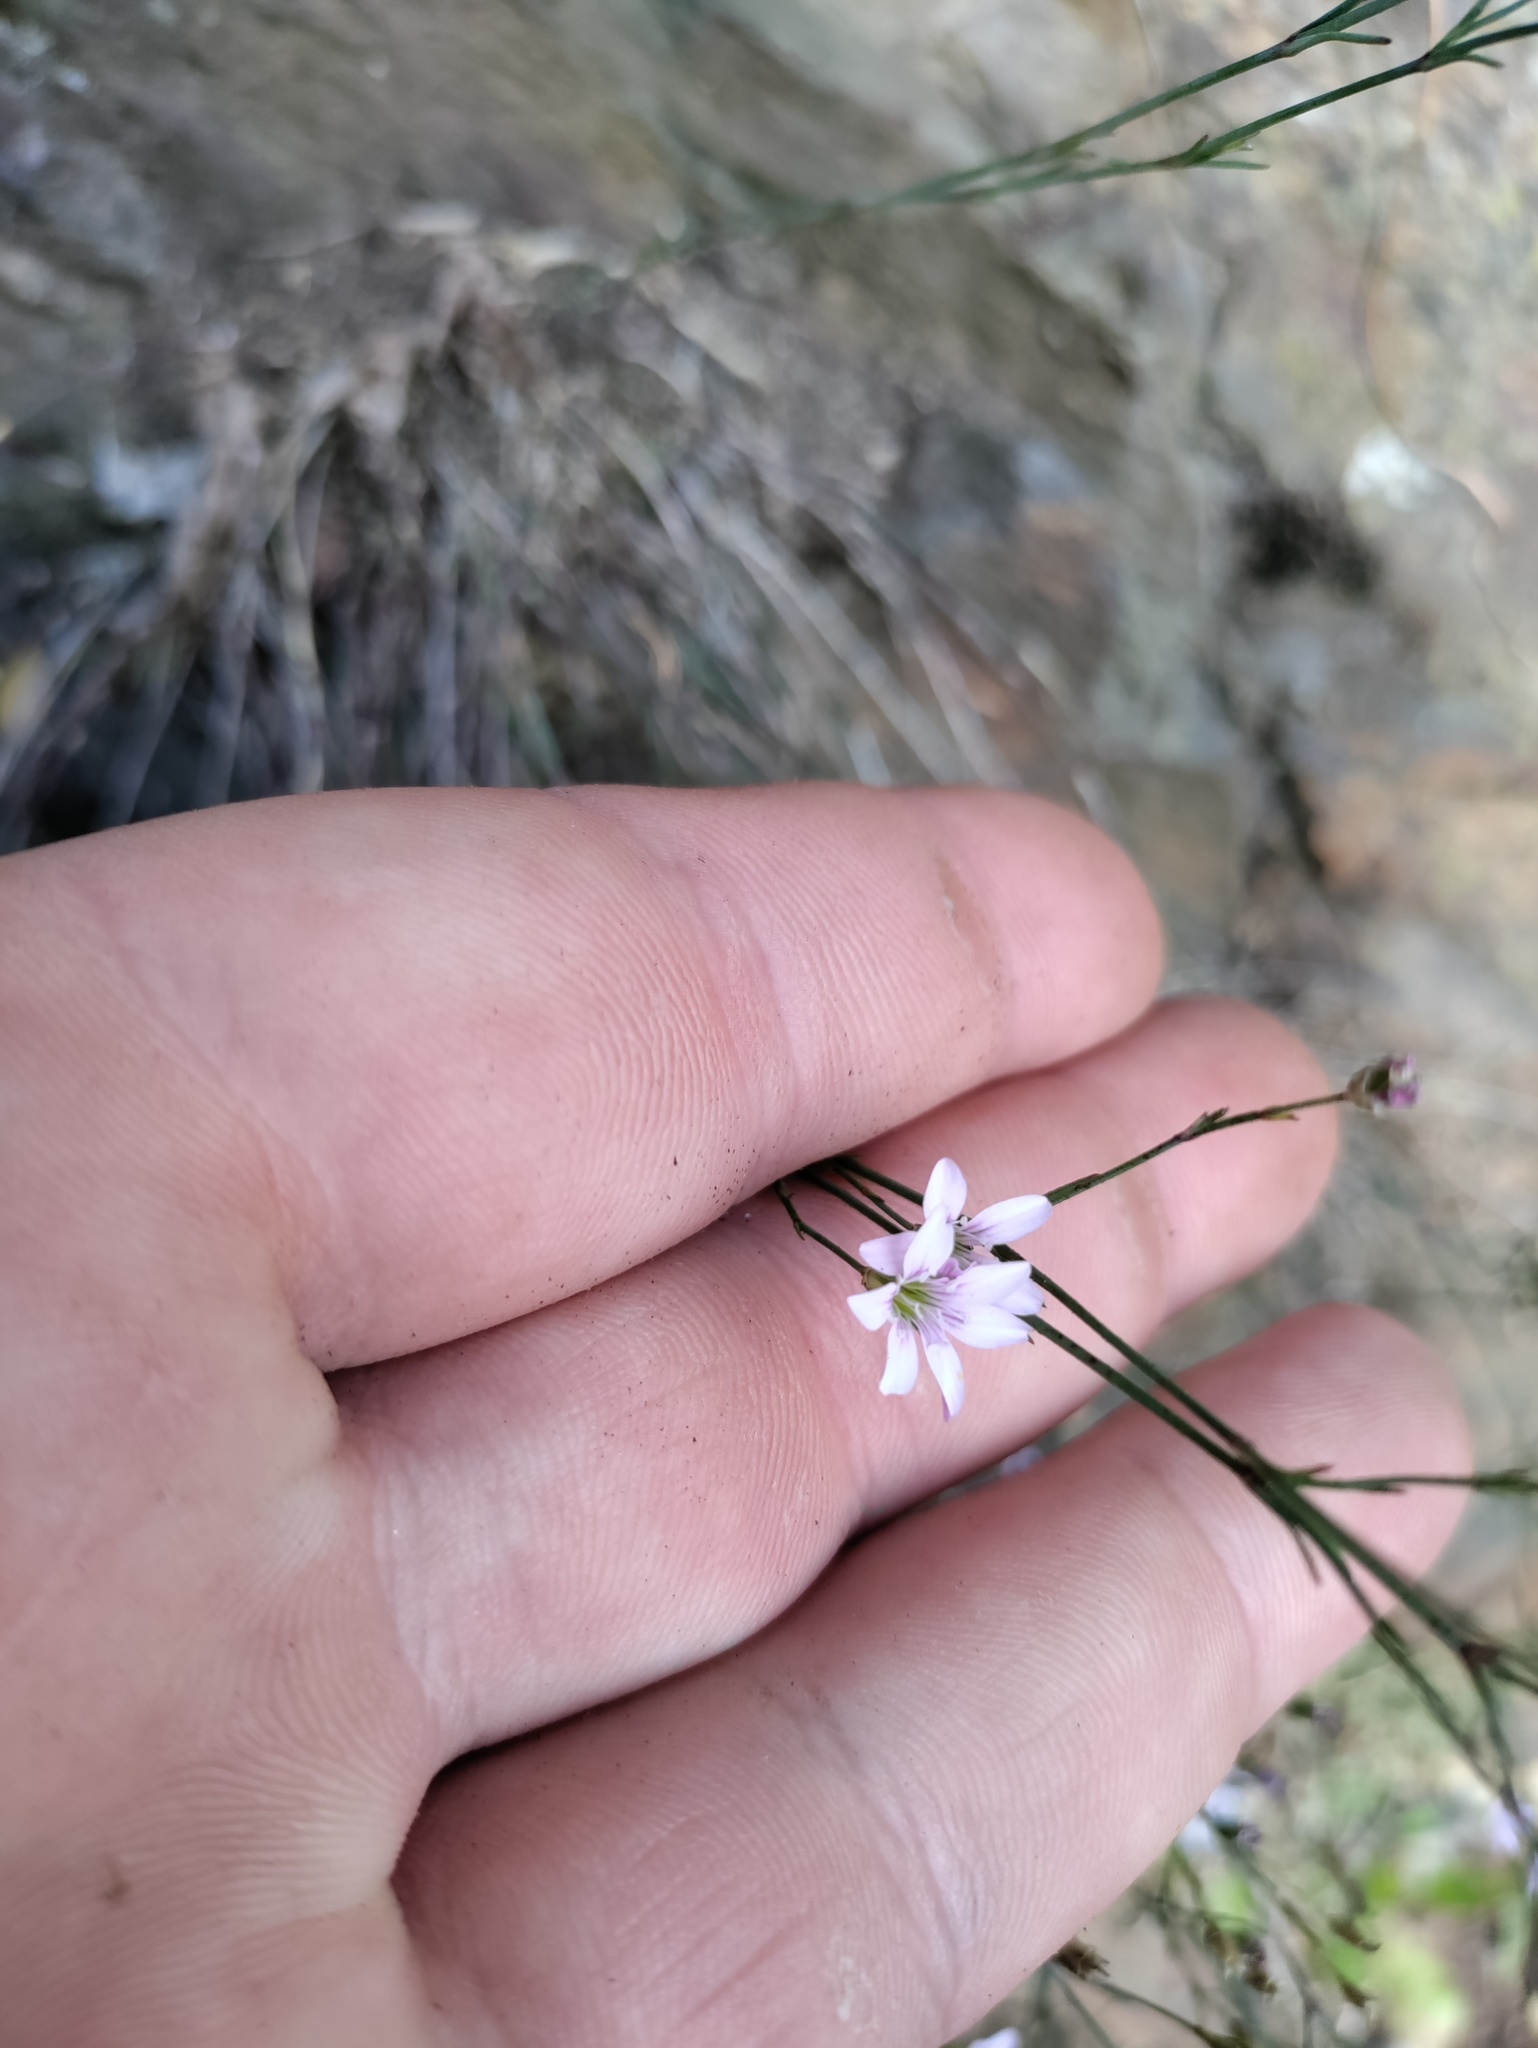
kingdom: Plantae
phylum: Tracheophyta
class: Magnoliopsida
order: Caryophyllales
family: Caryophyllaceae
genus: Petrorhagia
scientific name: Petrorhagia saxifraga
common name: Tunicflower
